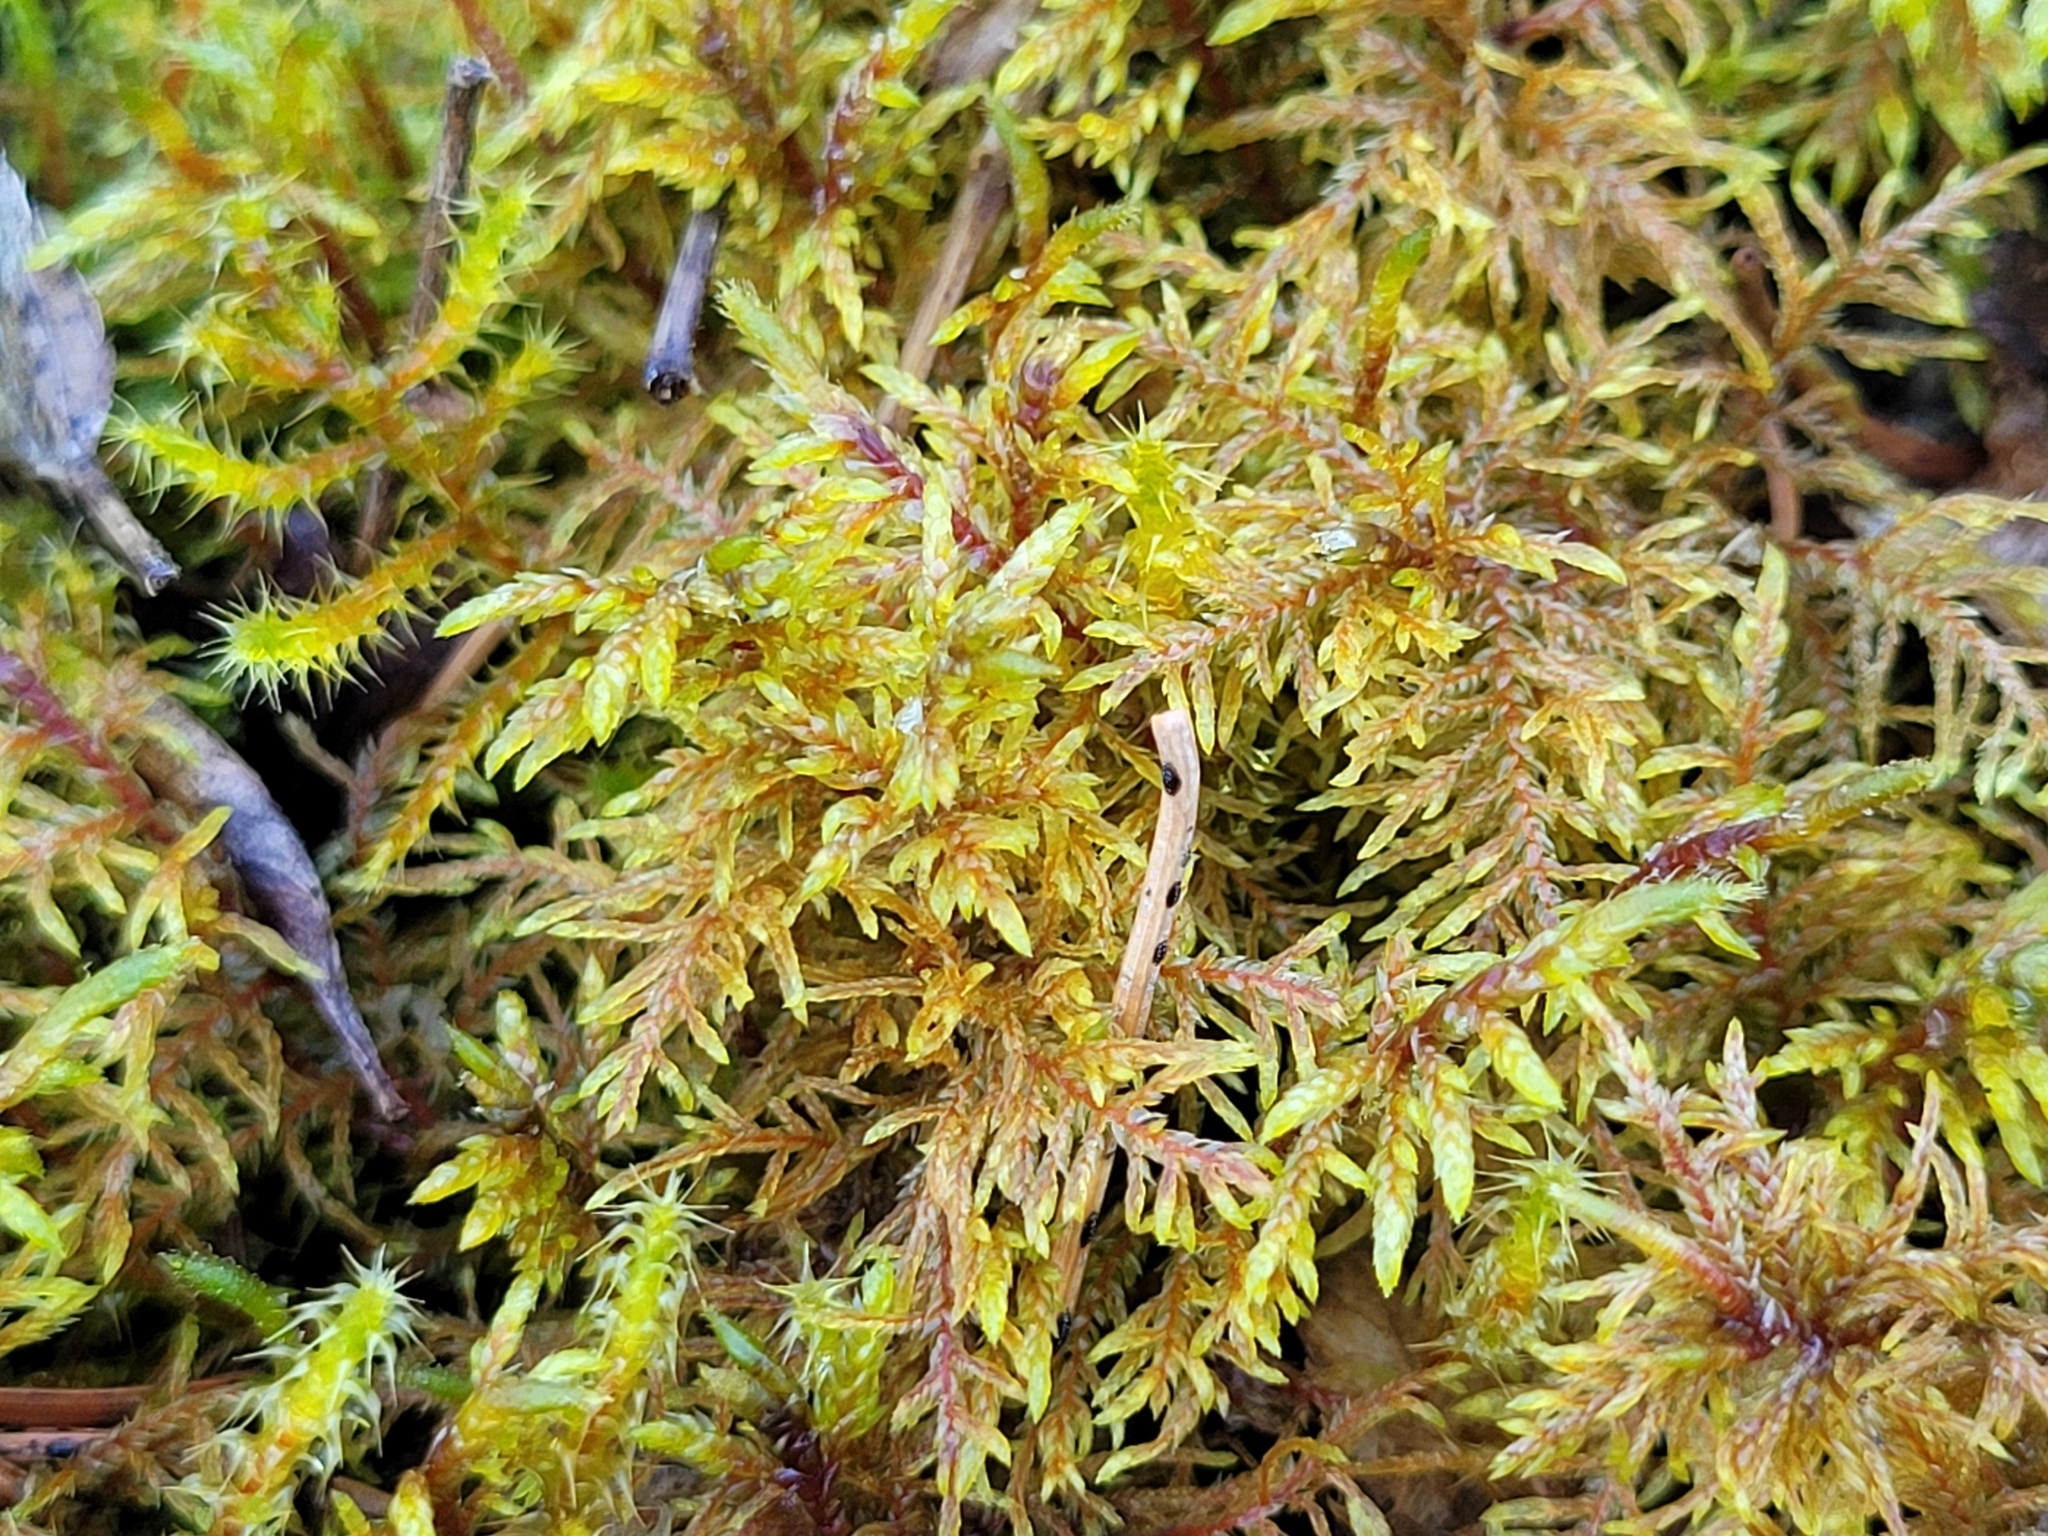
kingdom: Plantae
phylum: Bryophyta
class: Bryopsida
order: Hypnales
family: Hylocomiaceae
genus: Hylocomium
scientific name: Hylocomium splendens
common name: Stairstep moss
